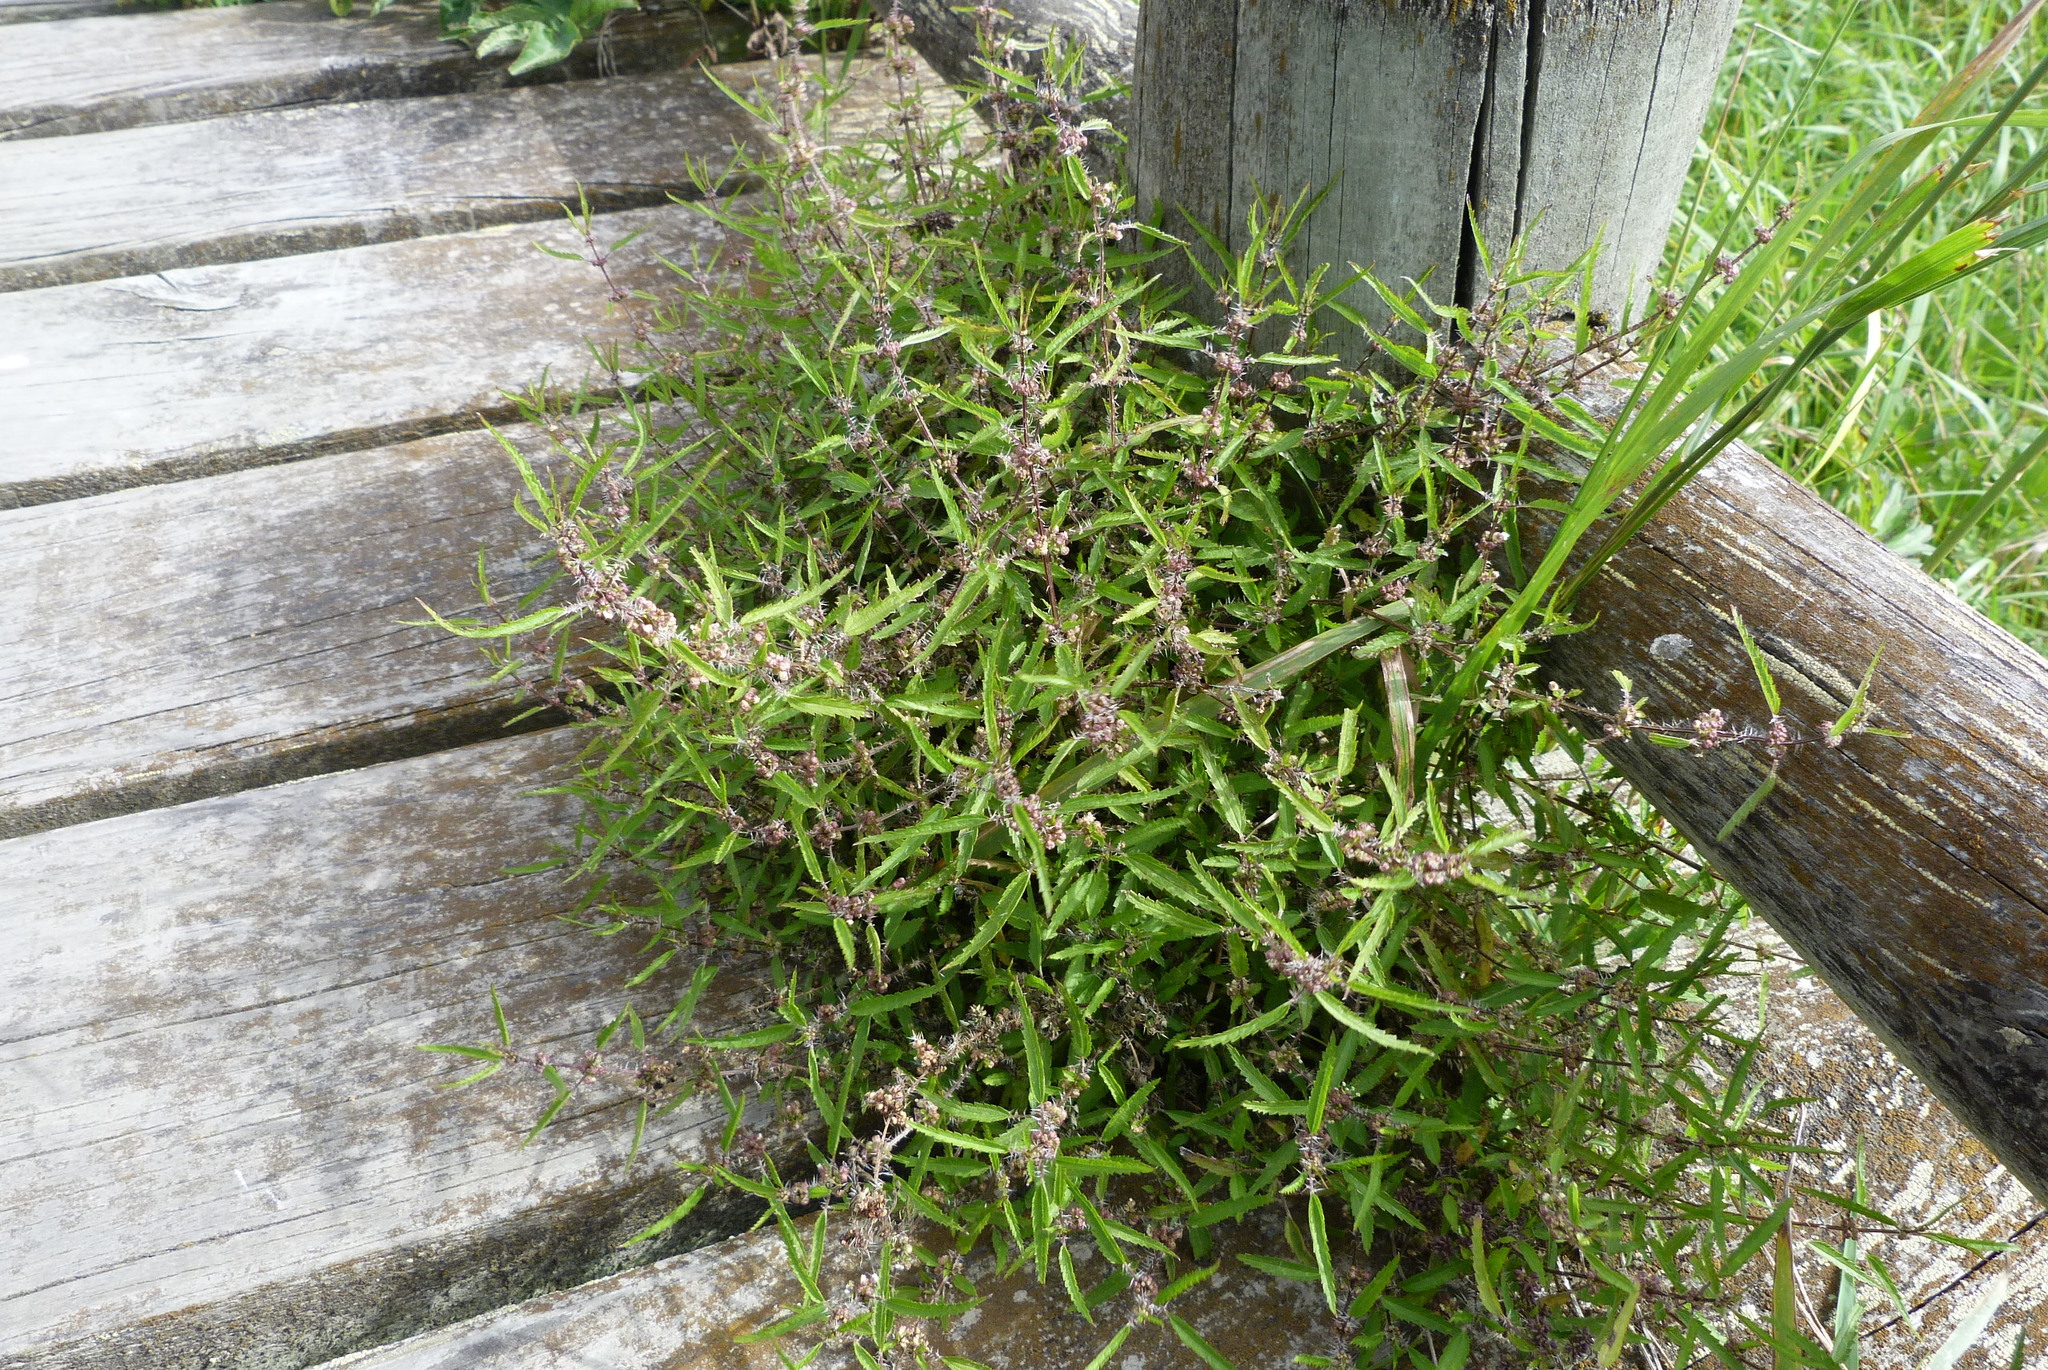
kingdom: Plantae
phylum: Tracheophyta
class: Magnoliopsida
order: Rosales
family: Urticaceae
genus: Urtica
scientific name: Urtica perconfusa
